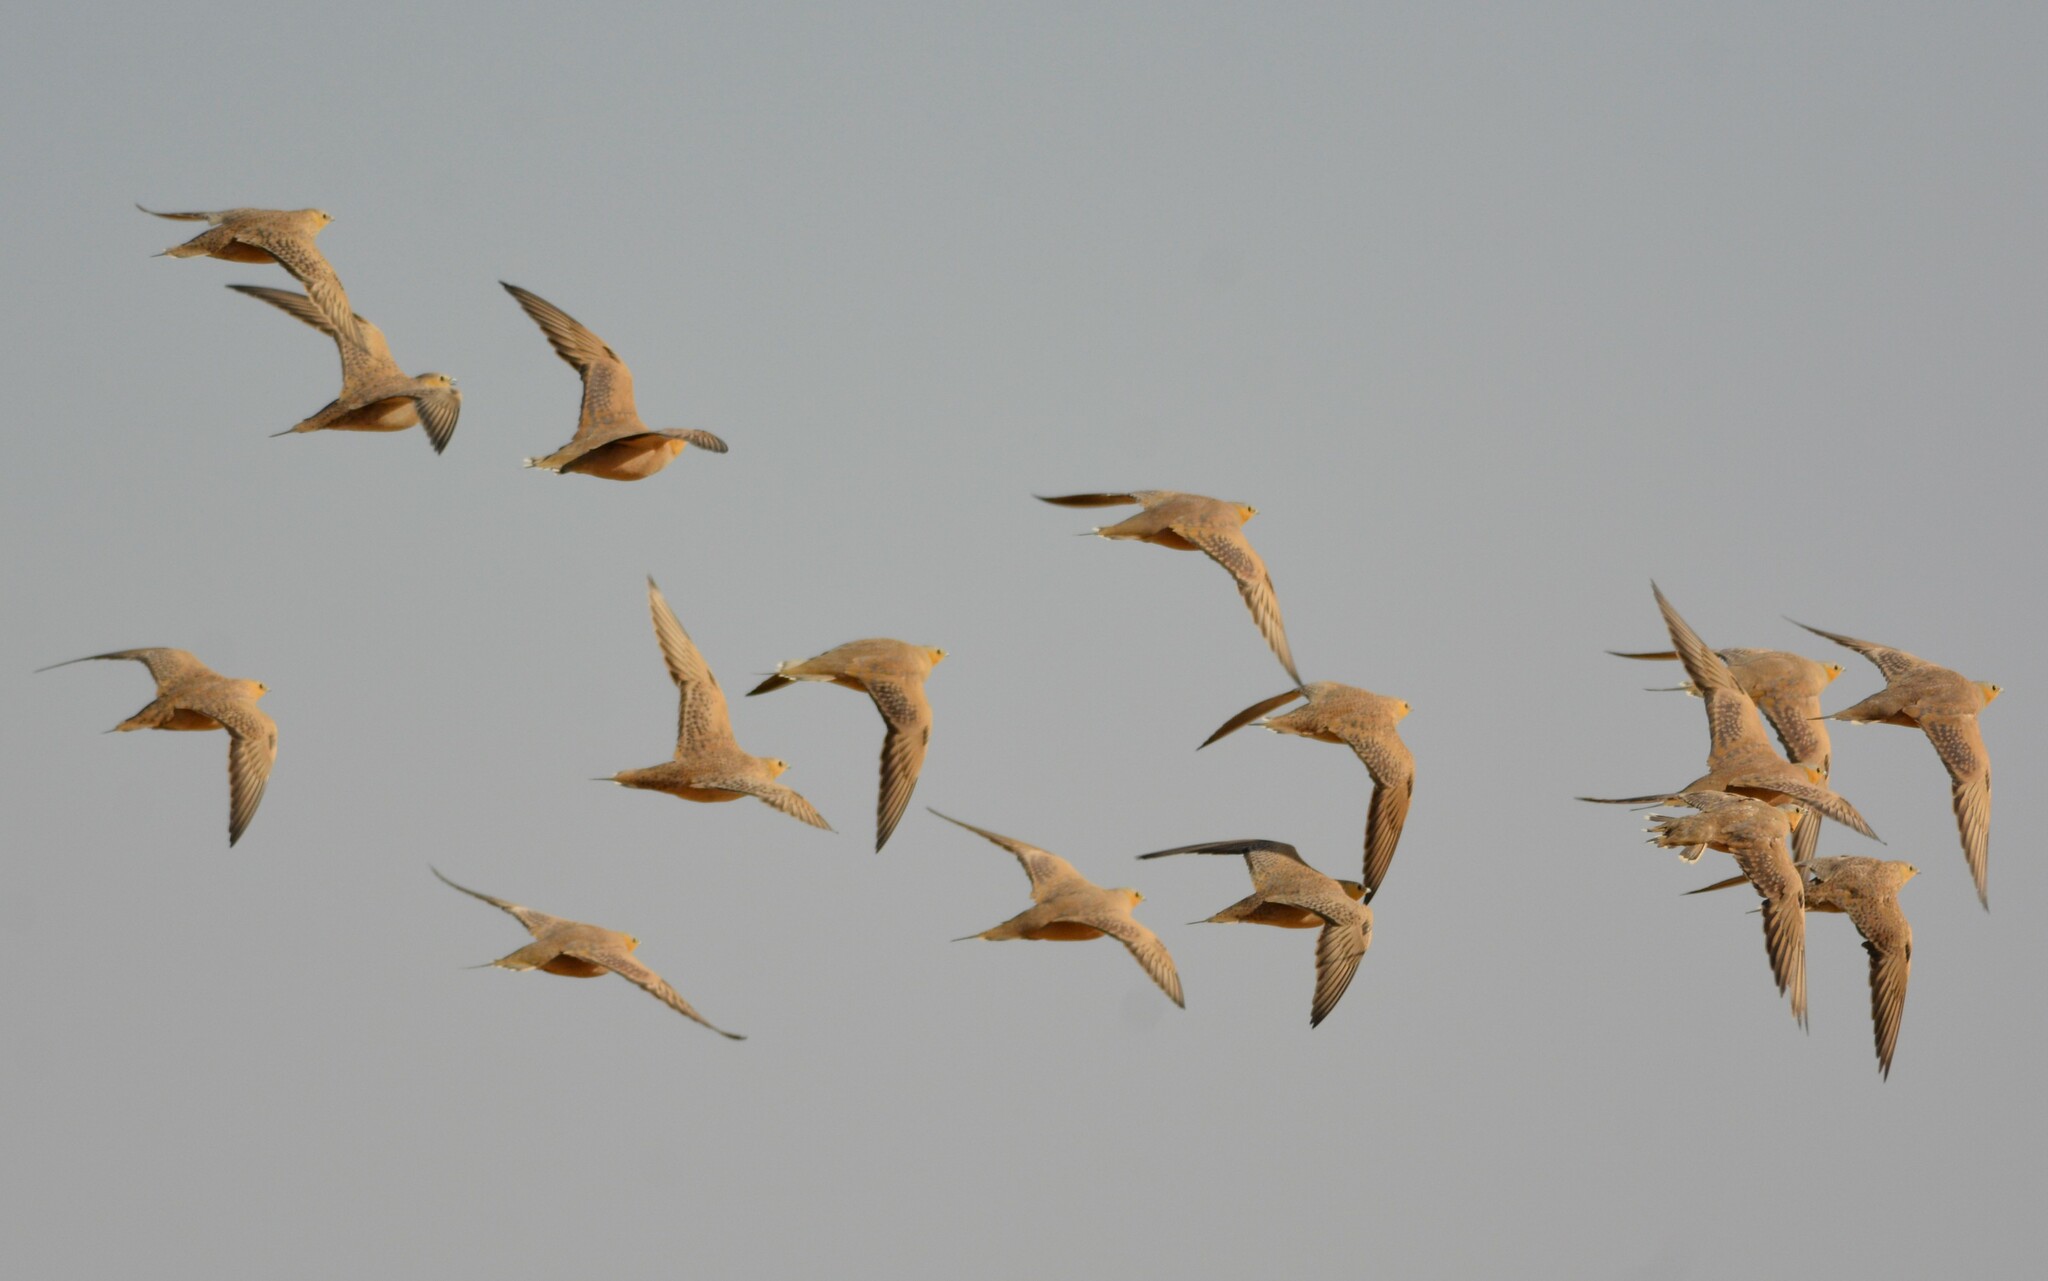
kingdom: Animalia
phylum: Chordata
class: Aves
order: Pteroclidiformes
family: Pteroclididae
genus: Pterocles
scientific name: Pterocles senegallus
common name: Spotted sandgrouse
